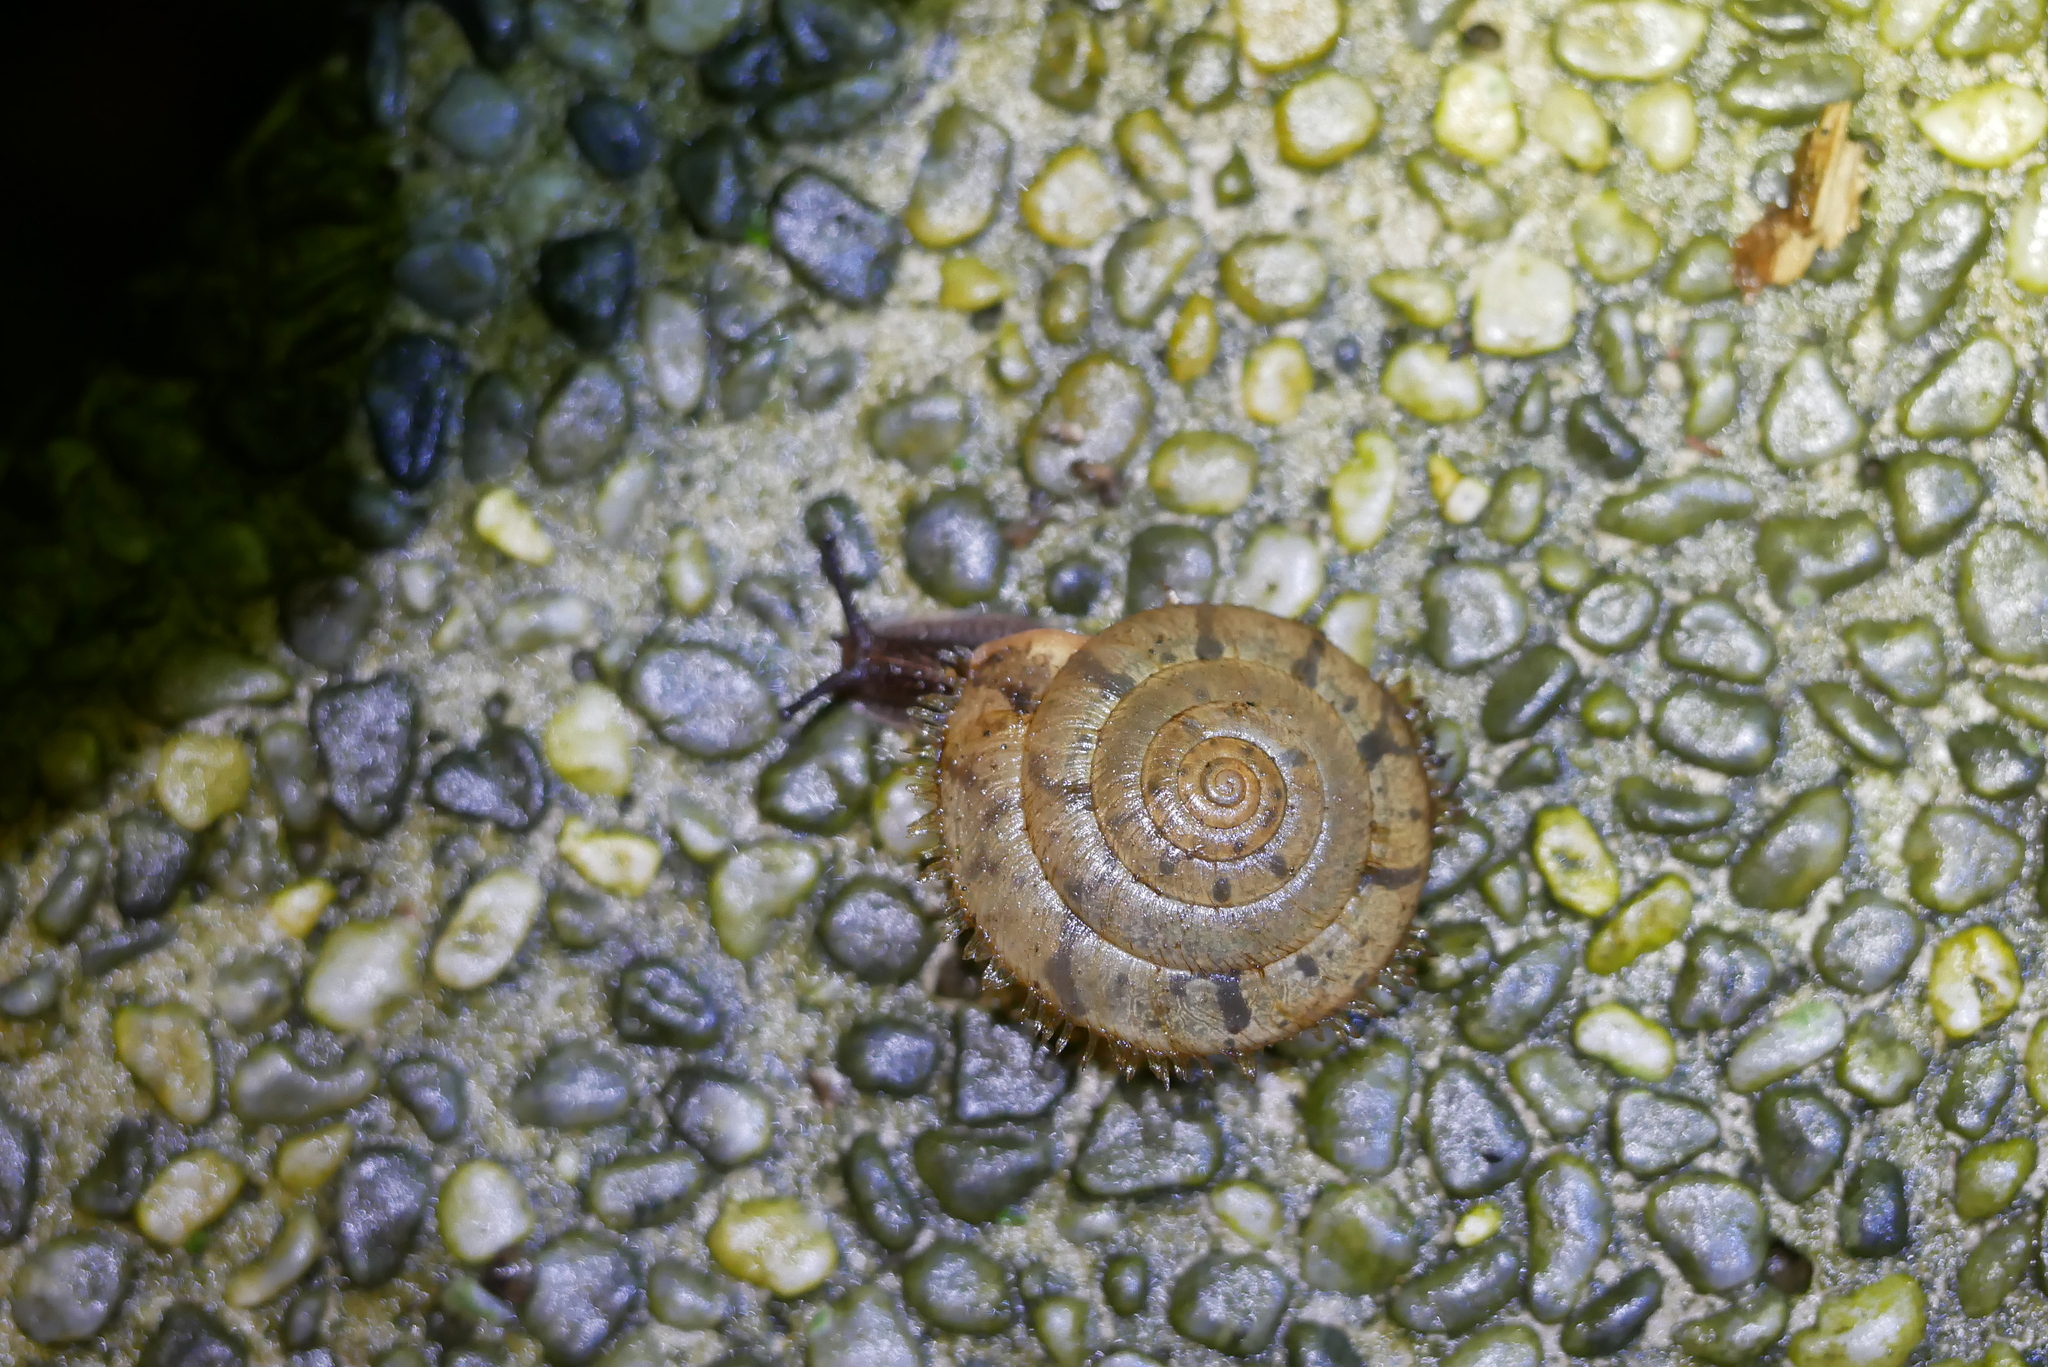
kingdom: Animalia
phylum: Mollusca
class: Gastropoda
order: Stylommatophora
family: Camaenidae
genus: Plectotropis
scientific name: Plectotropis mackensii
